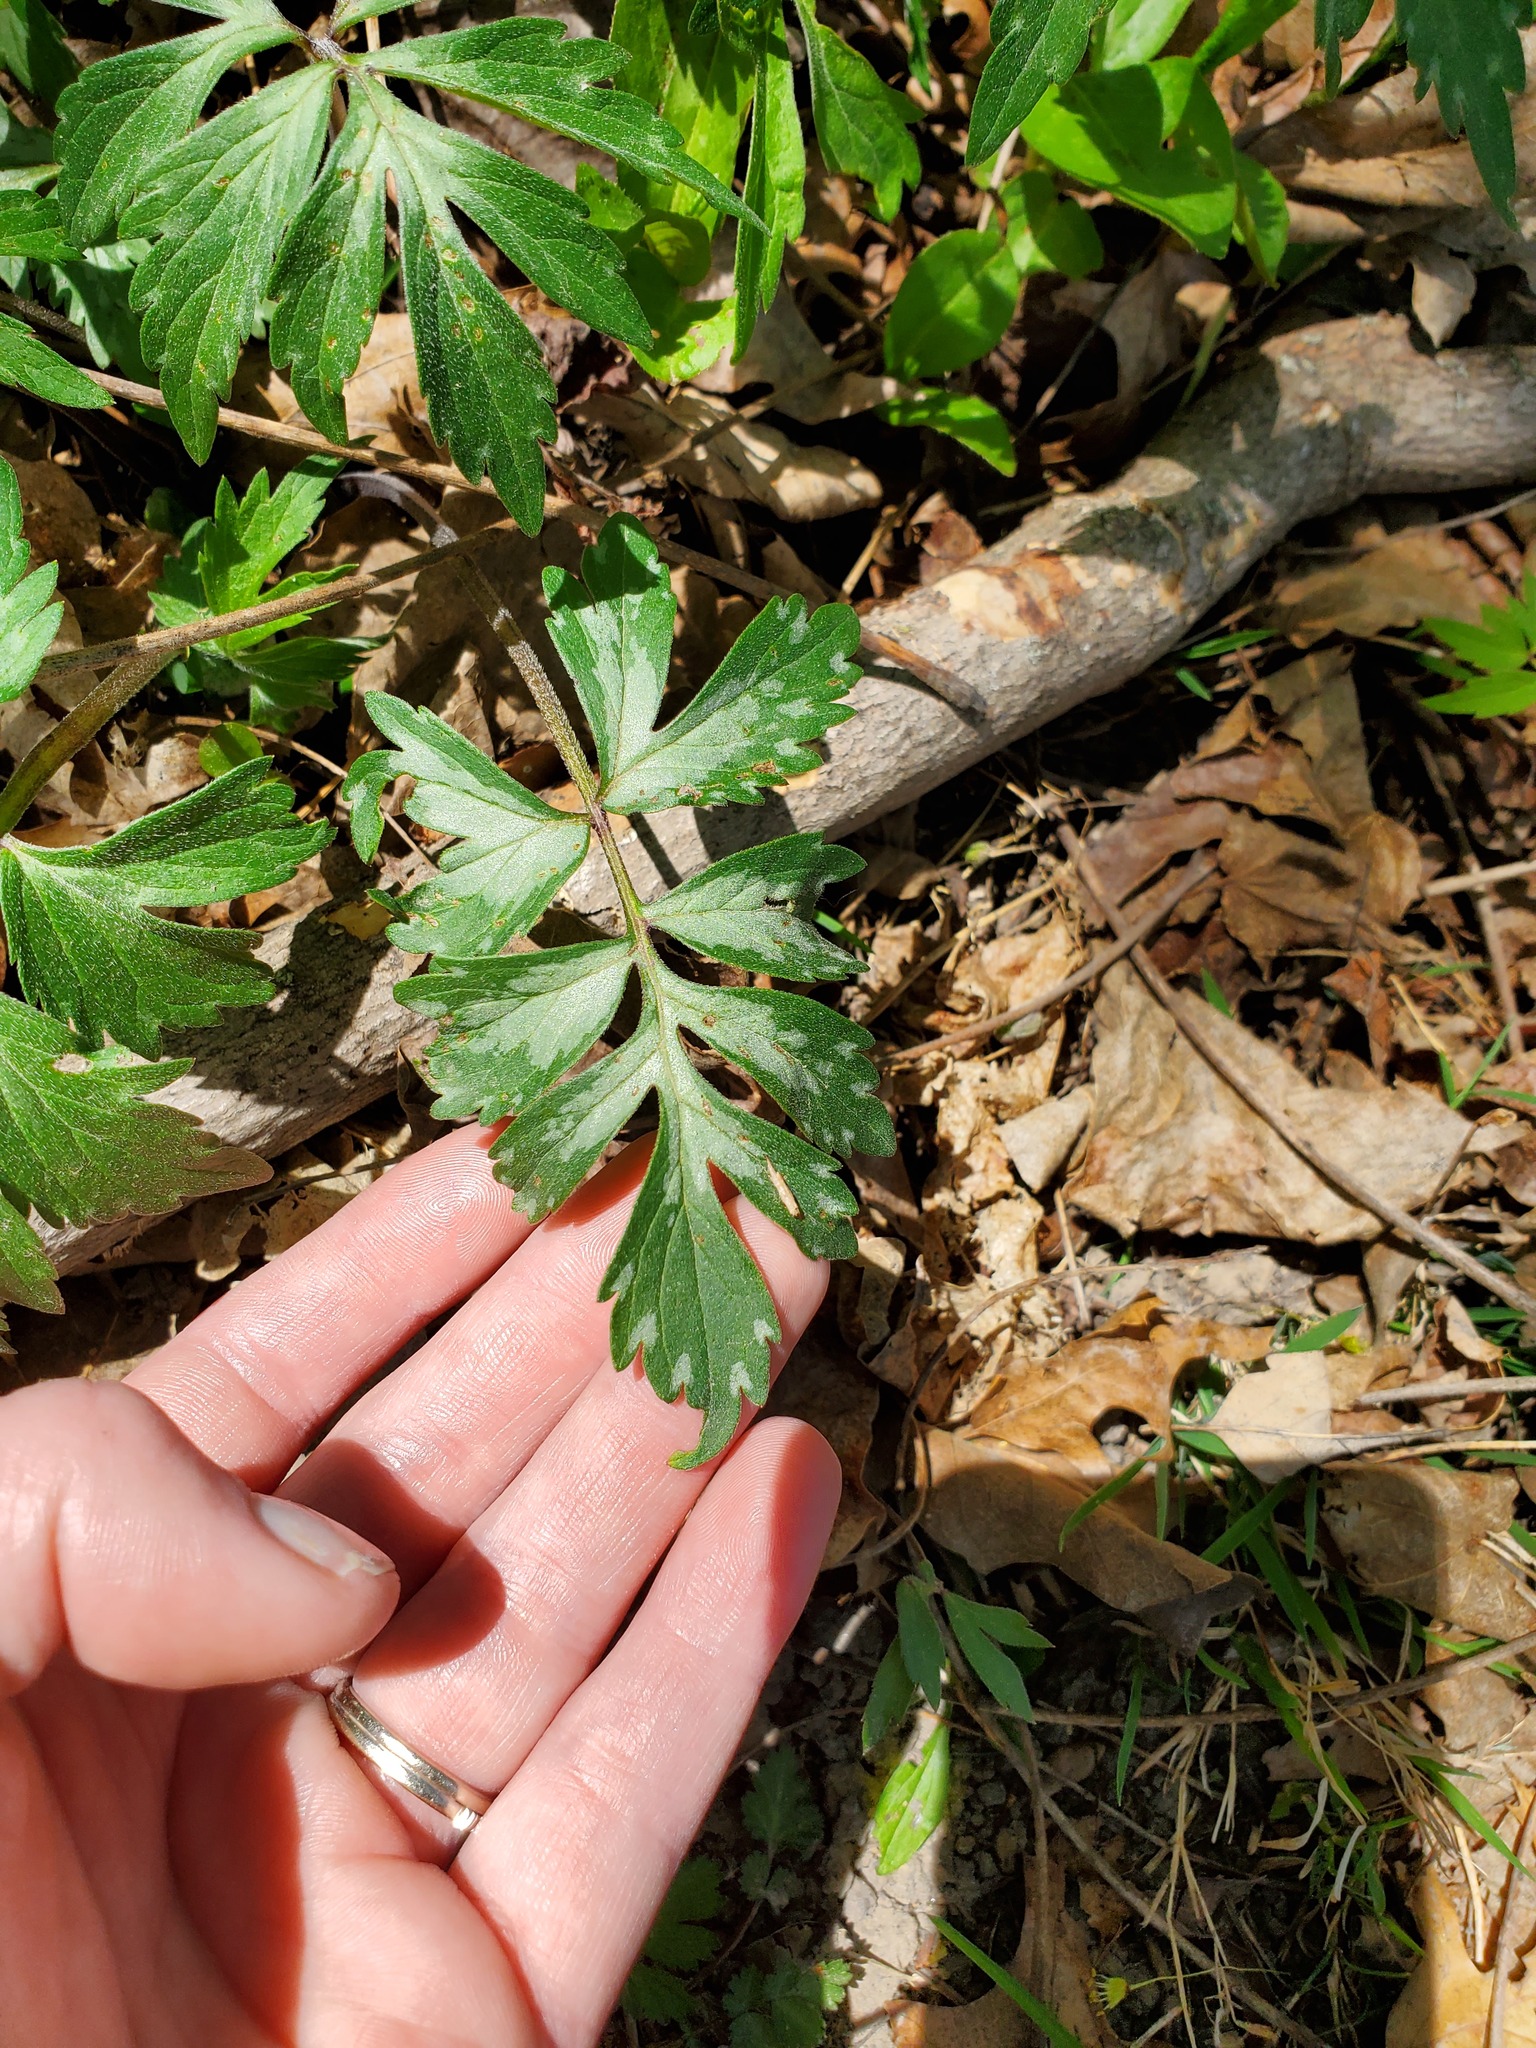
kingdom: Plantae
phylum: Tracheophyta
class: Magnoliopsida
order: Boraginales
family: Hydrophyllaceae
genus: Hydrophyllum
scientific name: Hydrophyllum virginianum
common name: Virginia waterleaf
